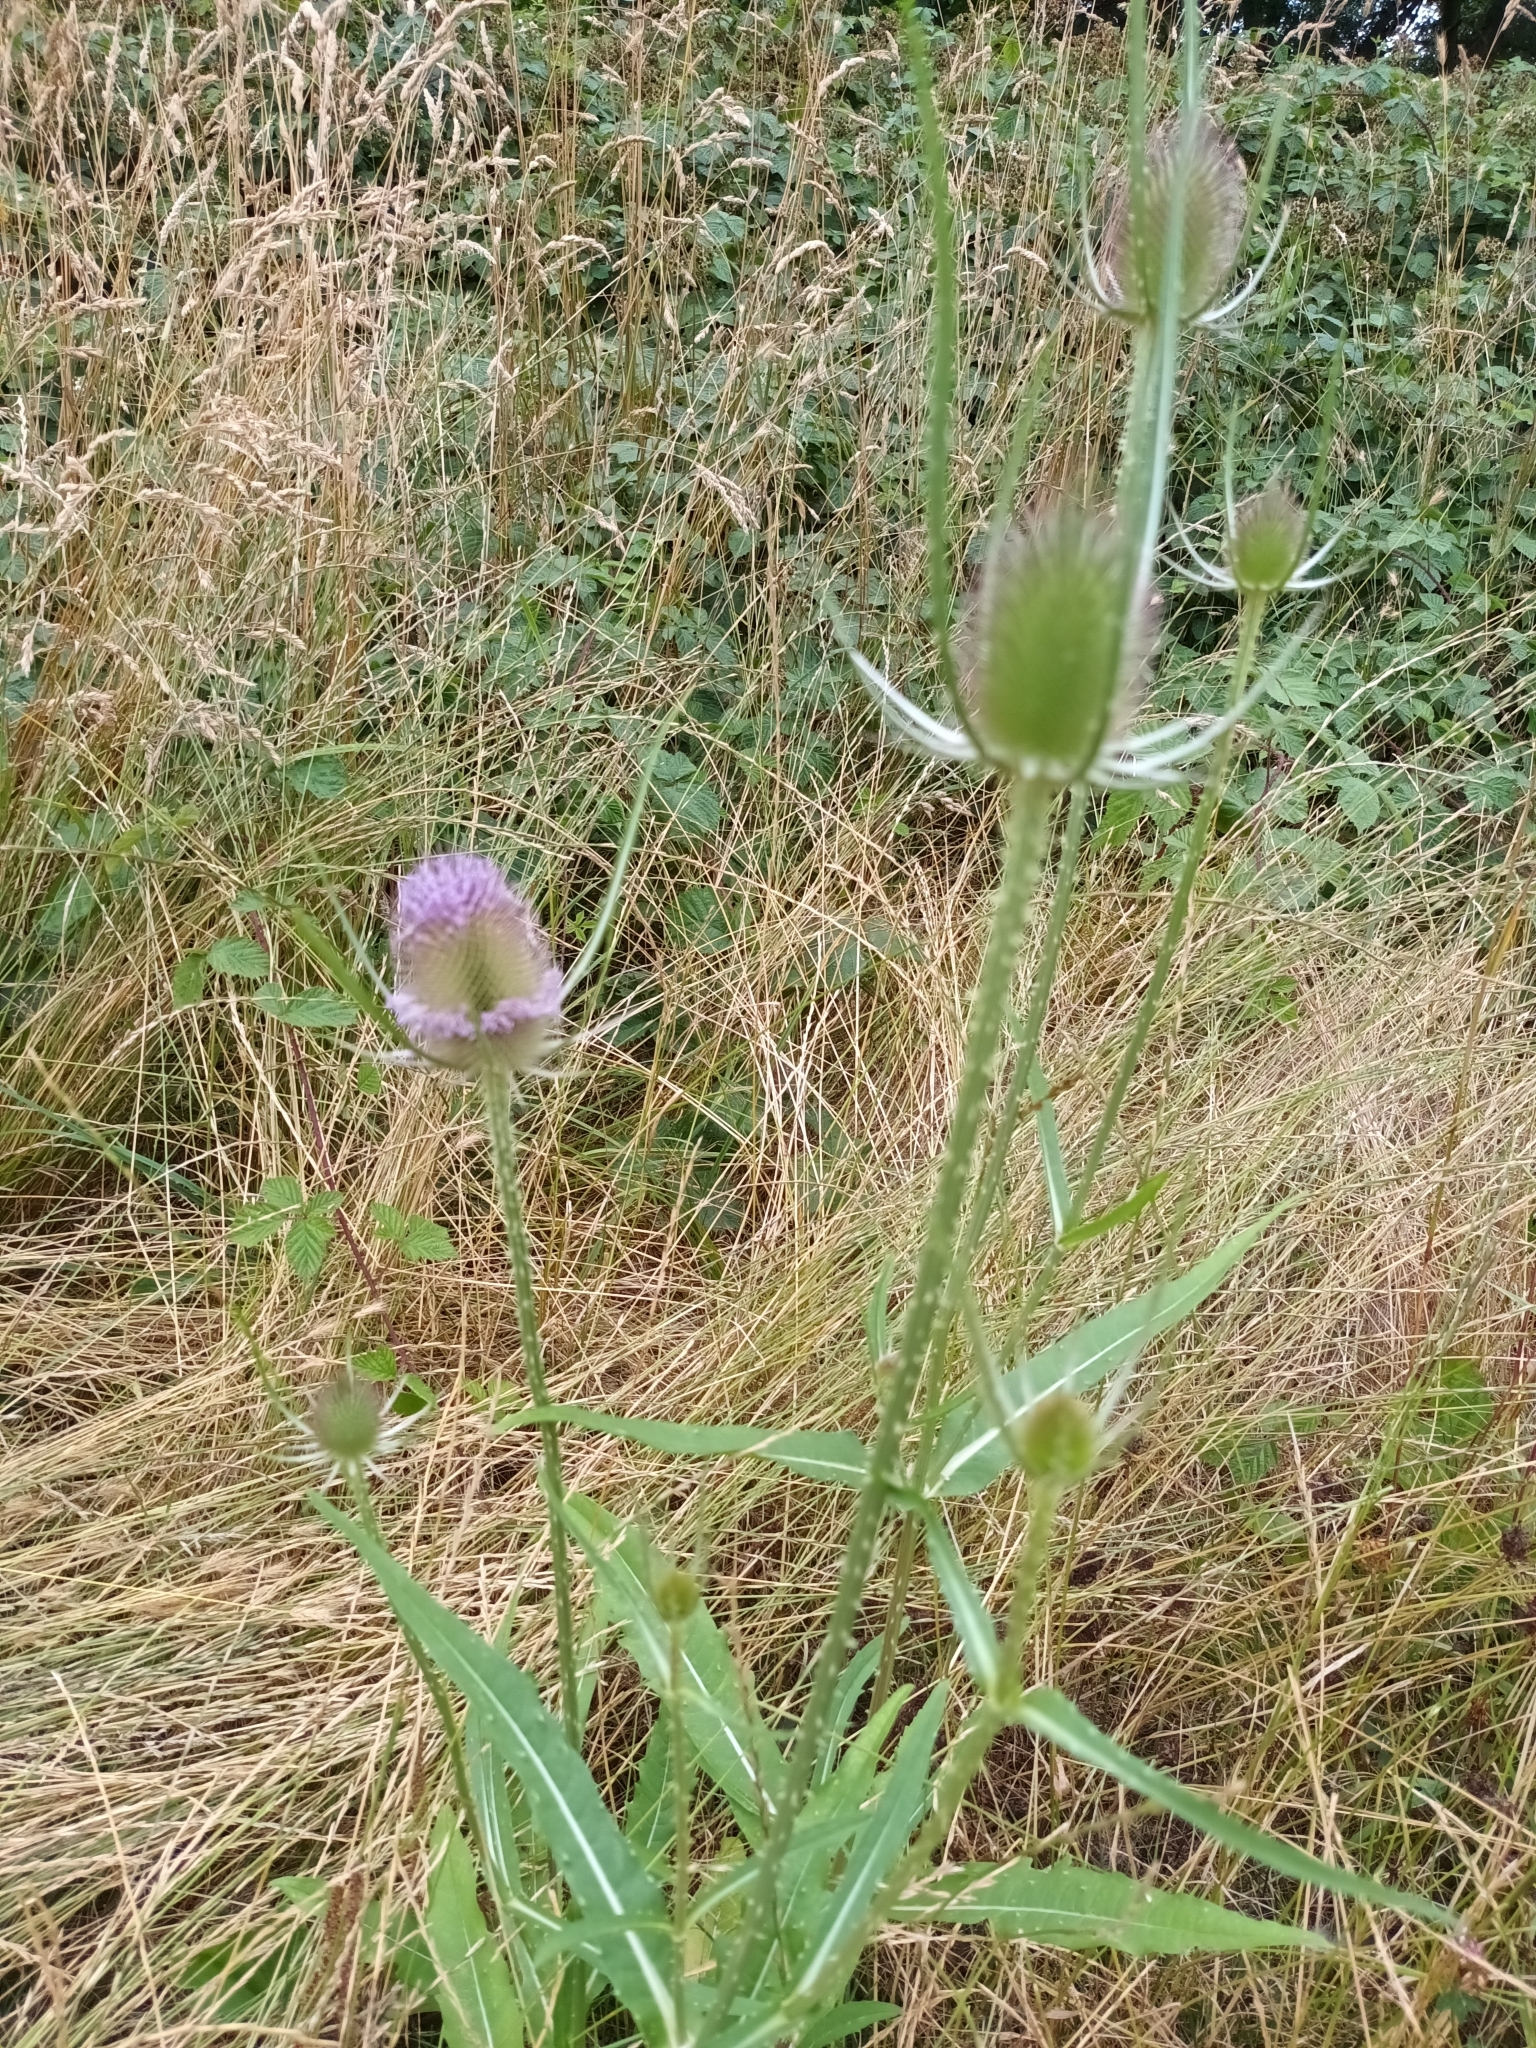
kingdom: Plantae
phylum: Tracheophyta
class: Magnoliopsida
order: Dipsacales
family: Caprifoliaceae
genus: Dipsacus
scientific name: Dipsacus fullonum
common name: Teasel
